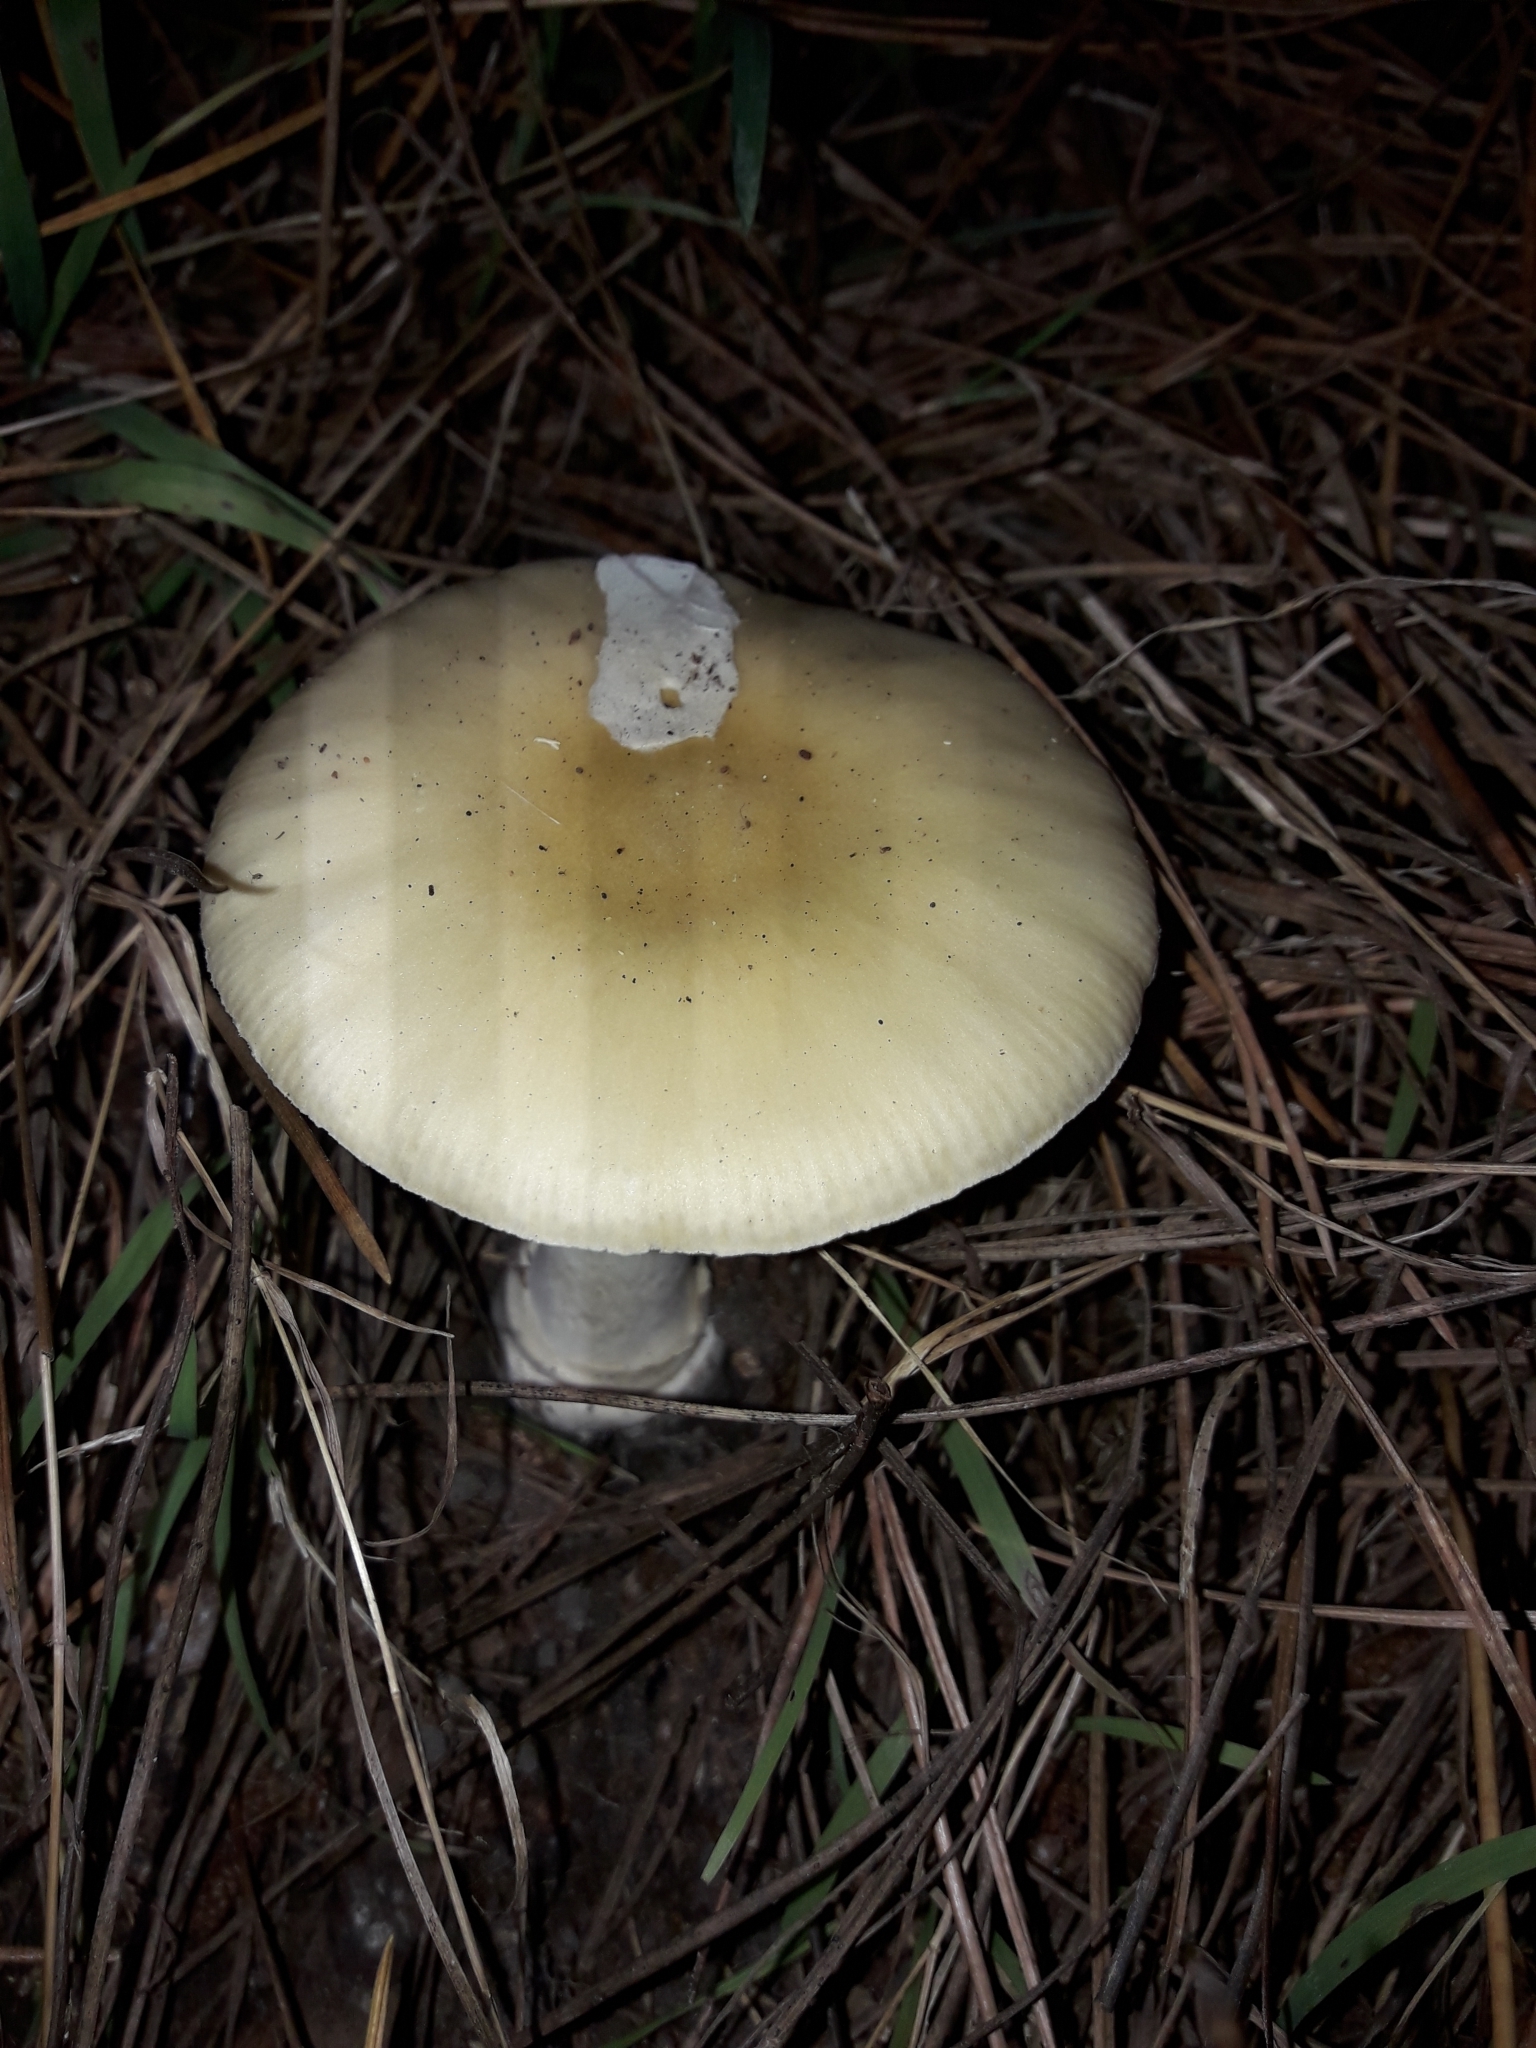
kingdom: Fungi
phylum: Basidiomycota
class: Agaricomycetes
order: Agaricales
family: Amanitaceae
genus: Amanita
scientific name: Amanita gemmata
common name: Jewelled amanita
